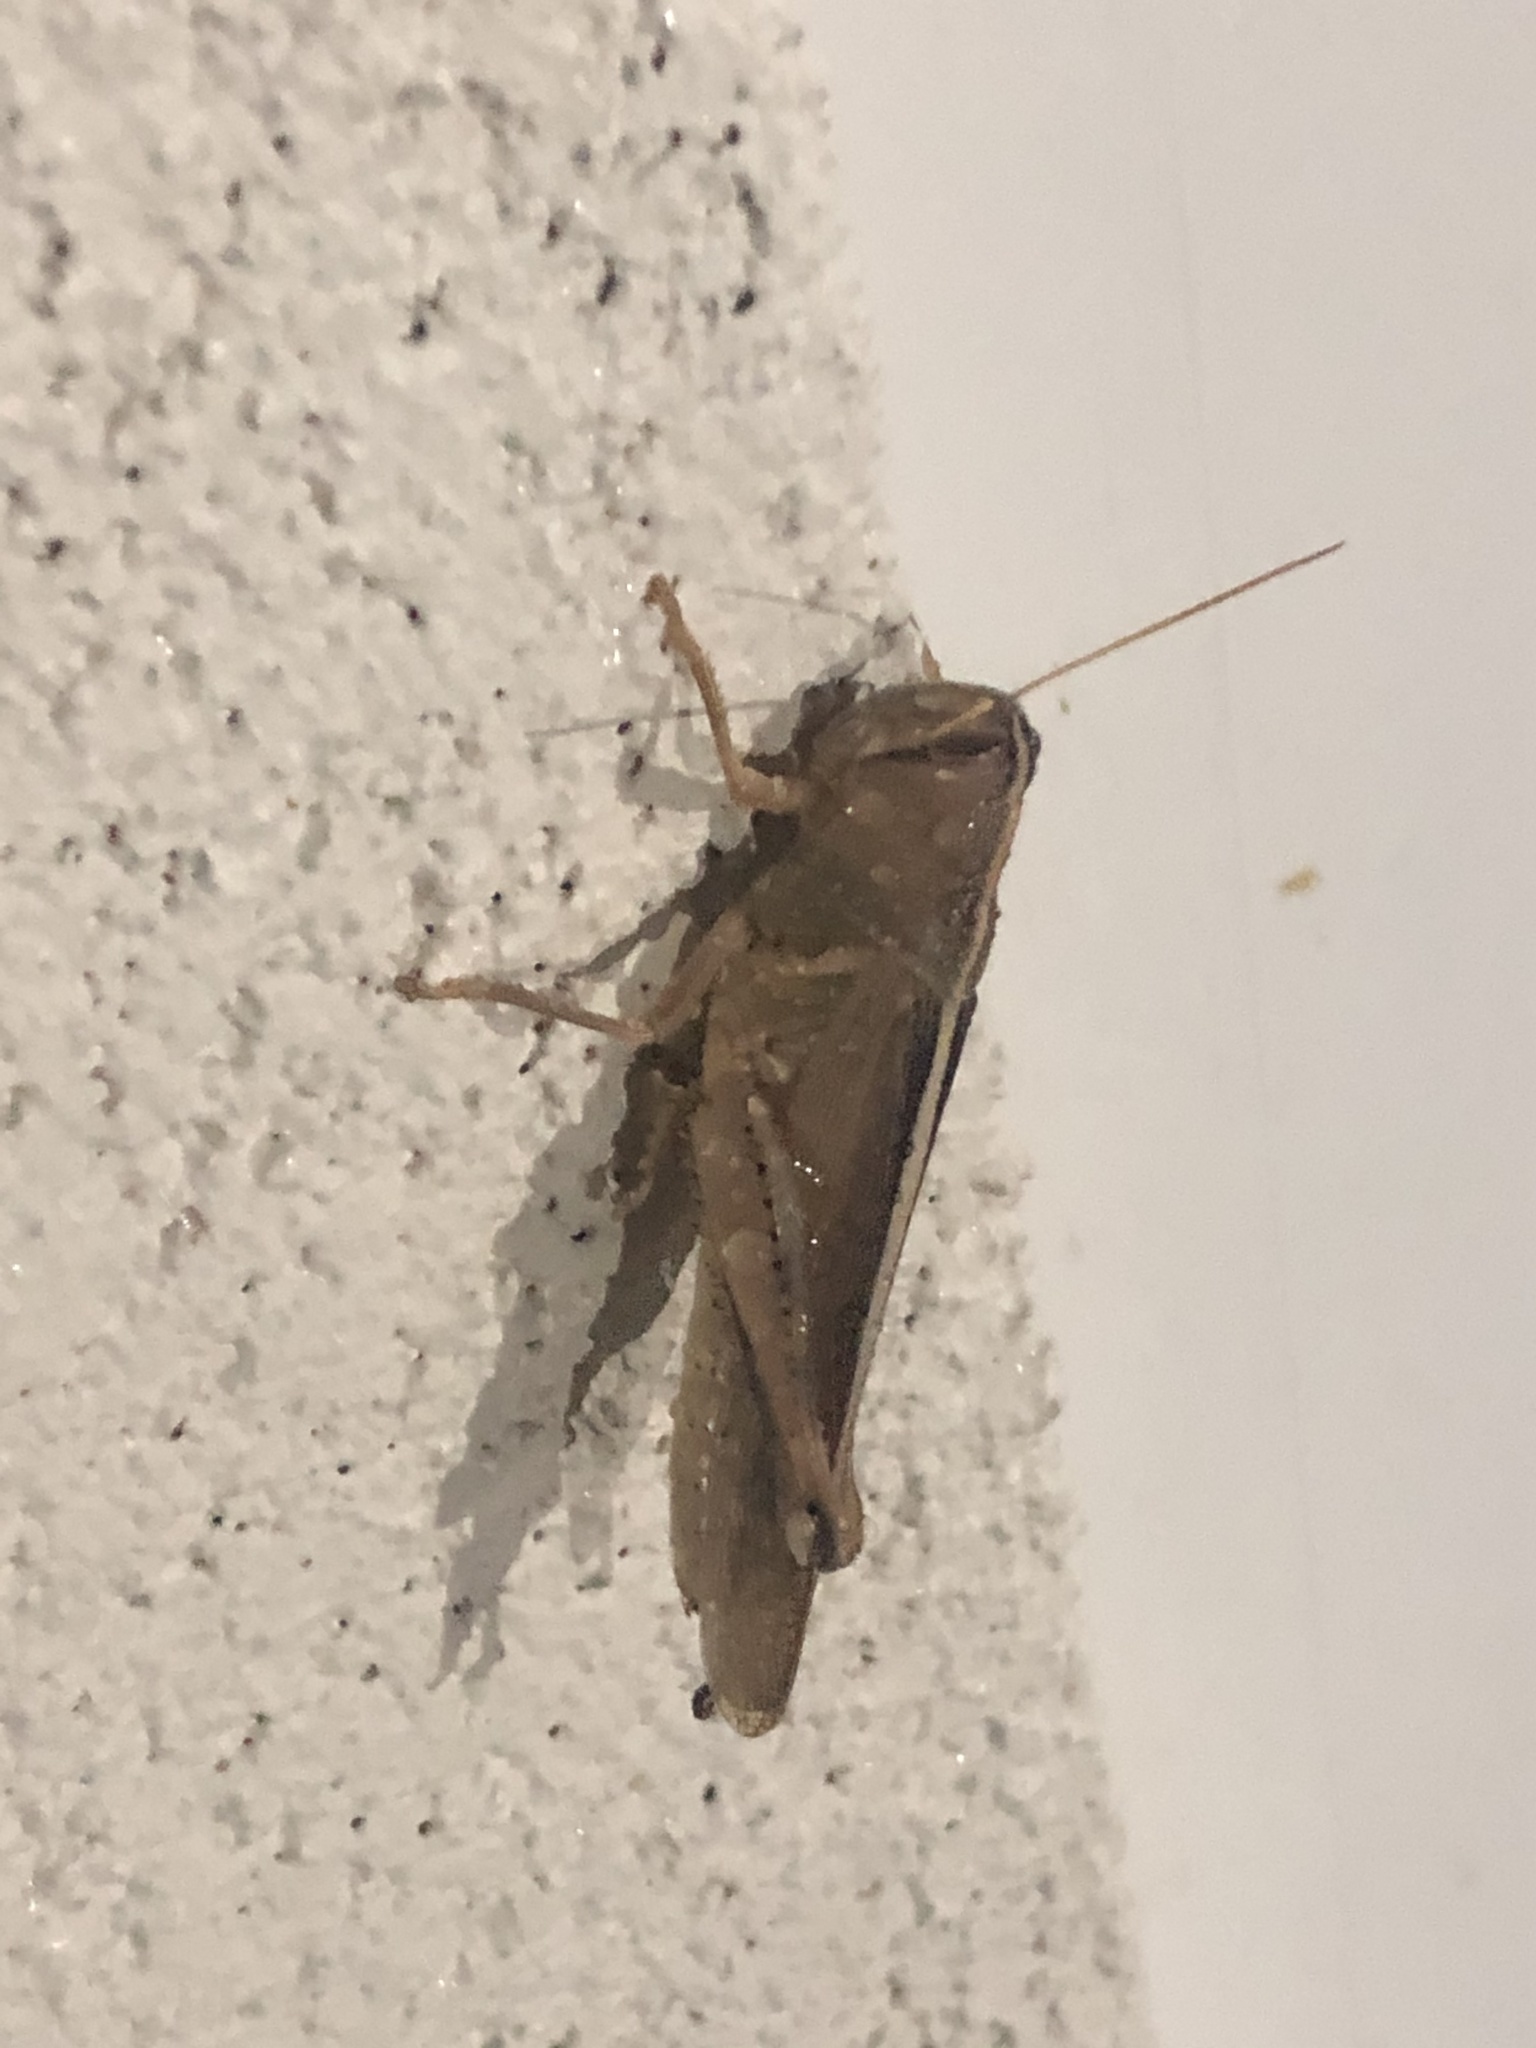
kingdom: Animalia
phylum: Arthropoda
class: Insecta
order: Orthoptera
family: Acrididae
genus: Schistocerca
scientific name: Schistocerca lineata
